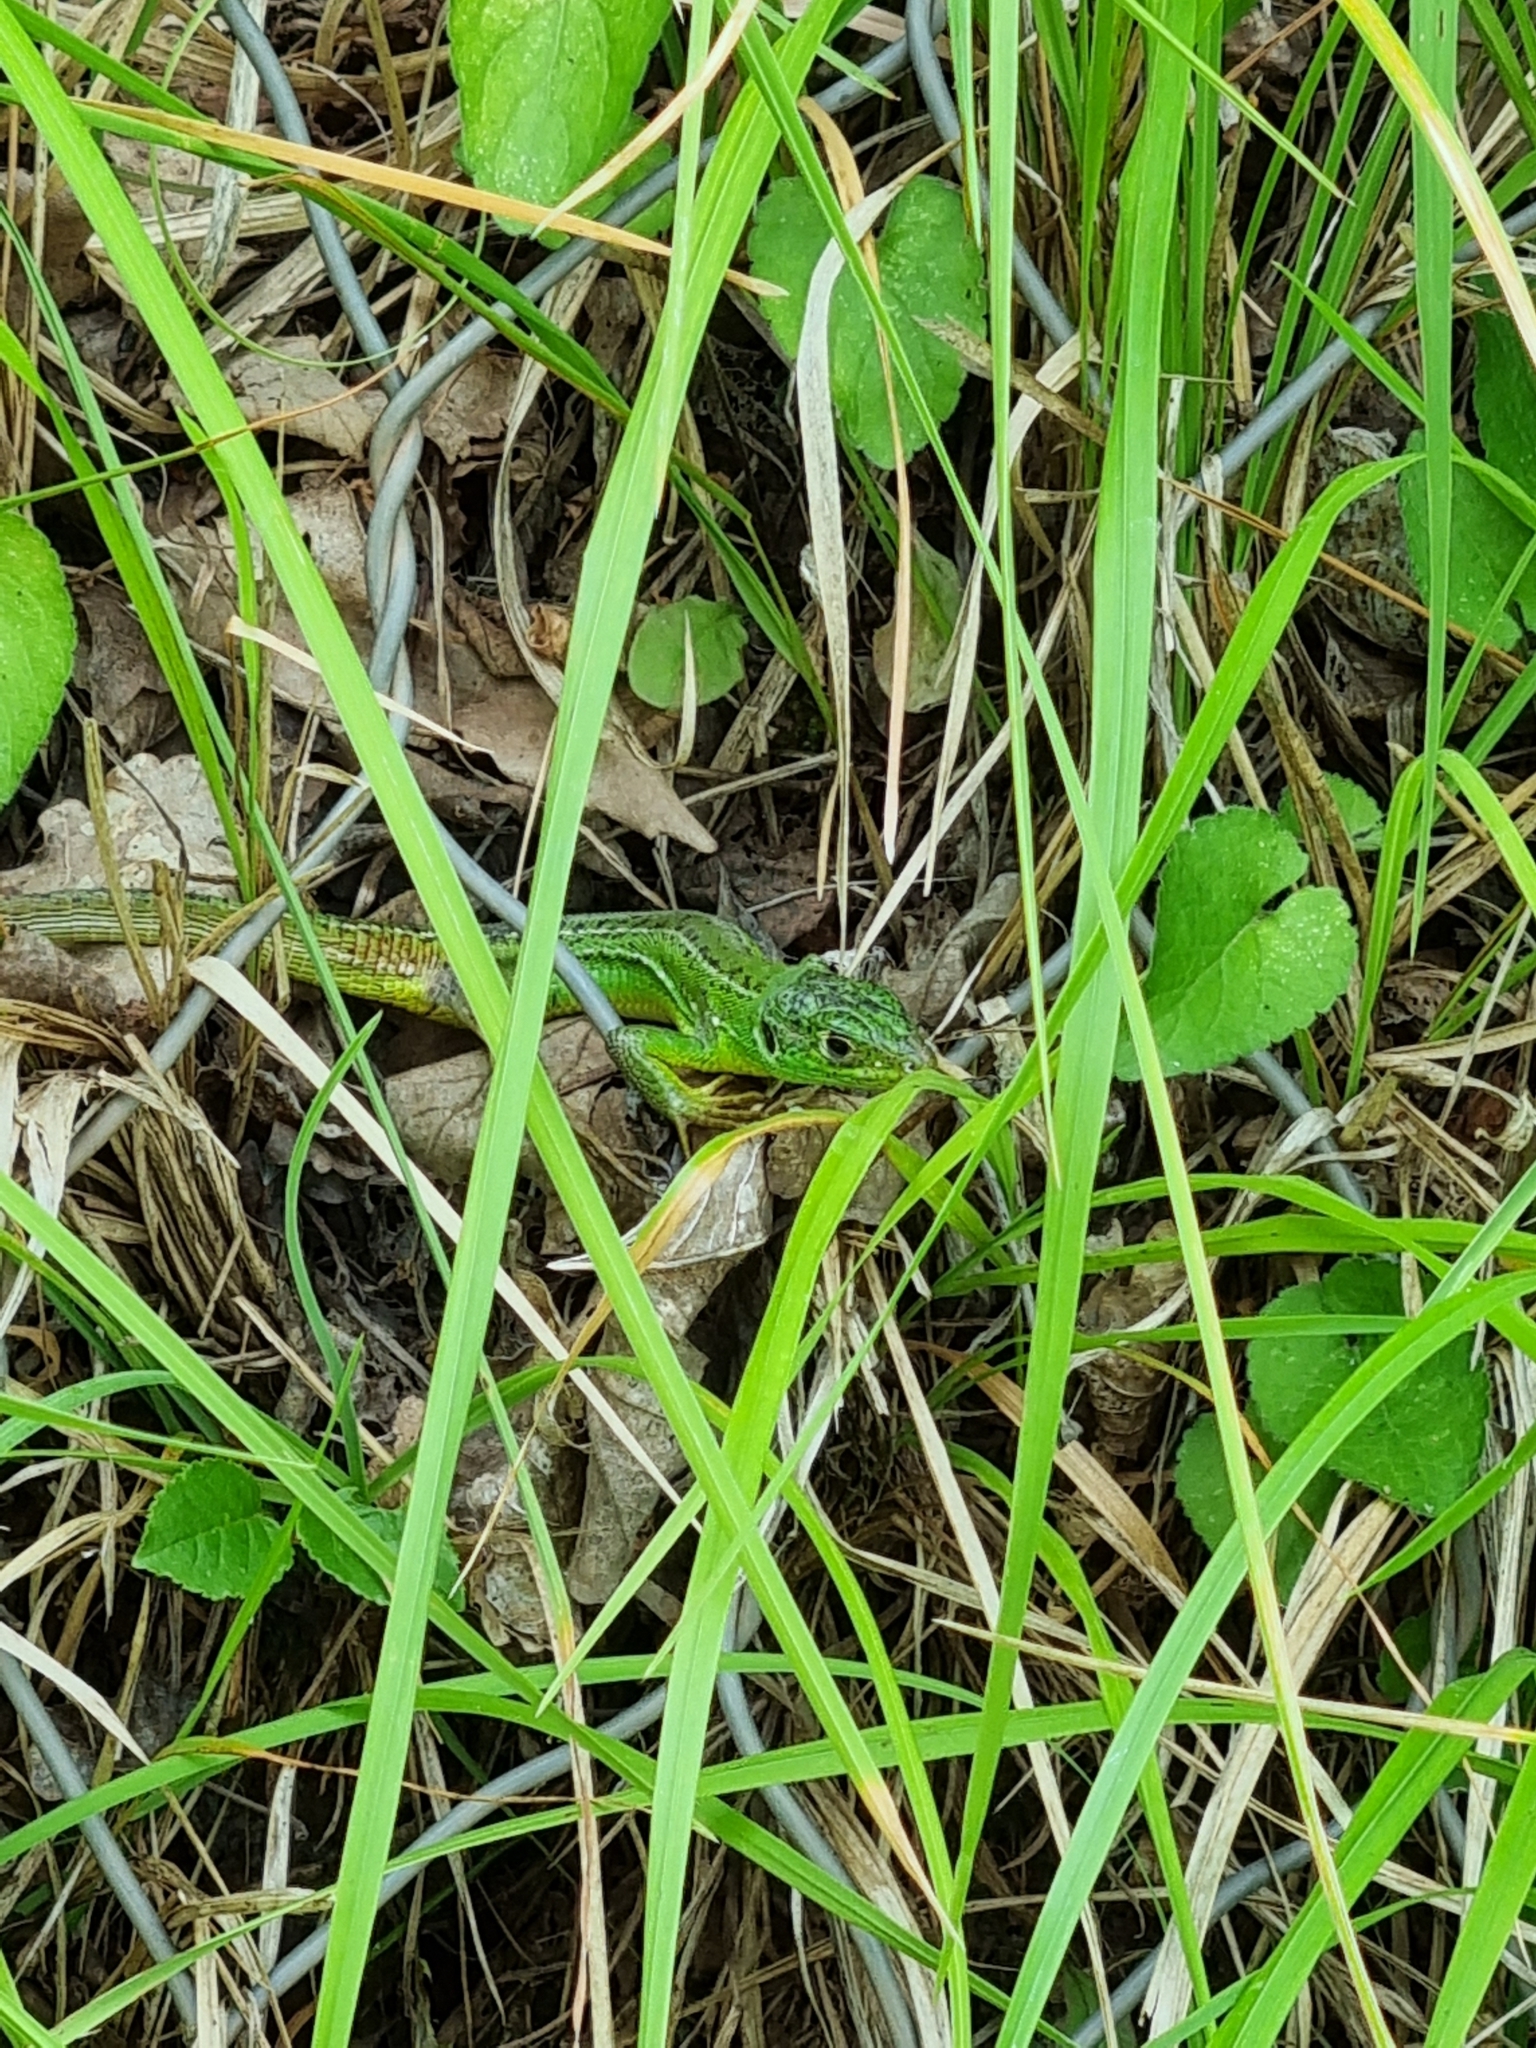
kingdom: Animalia
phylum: Chordata
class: Squamata
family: Lacertidae
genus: Lacerta
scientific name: Lacerta bilineata
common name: Western green lizard
